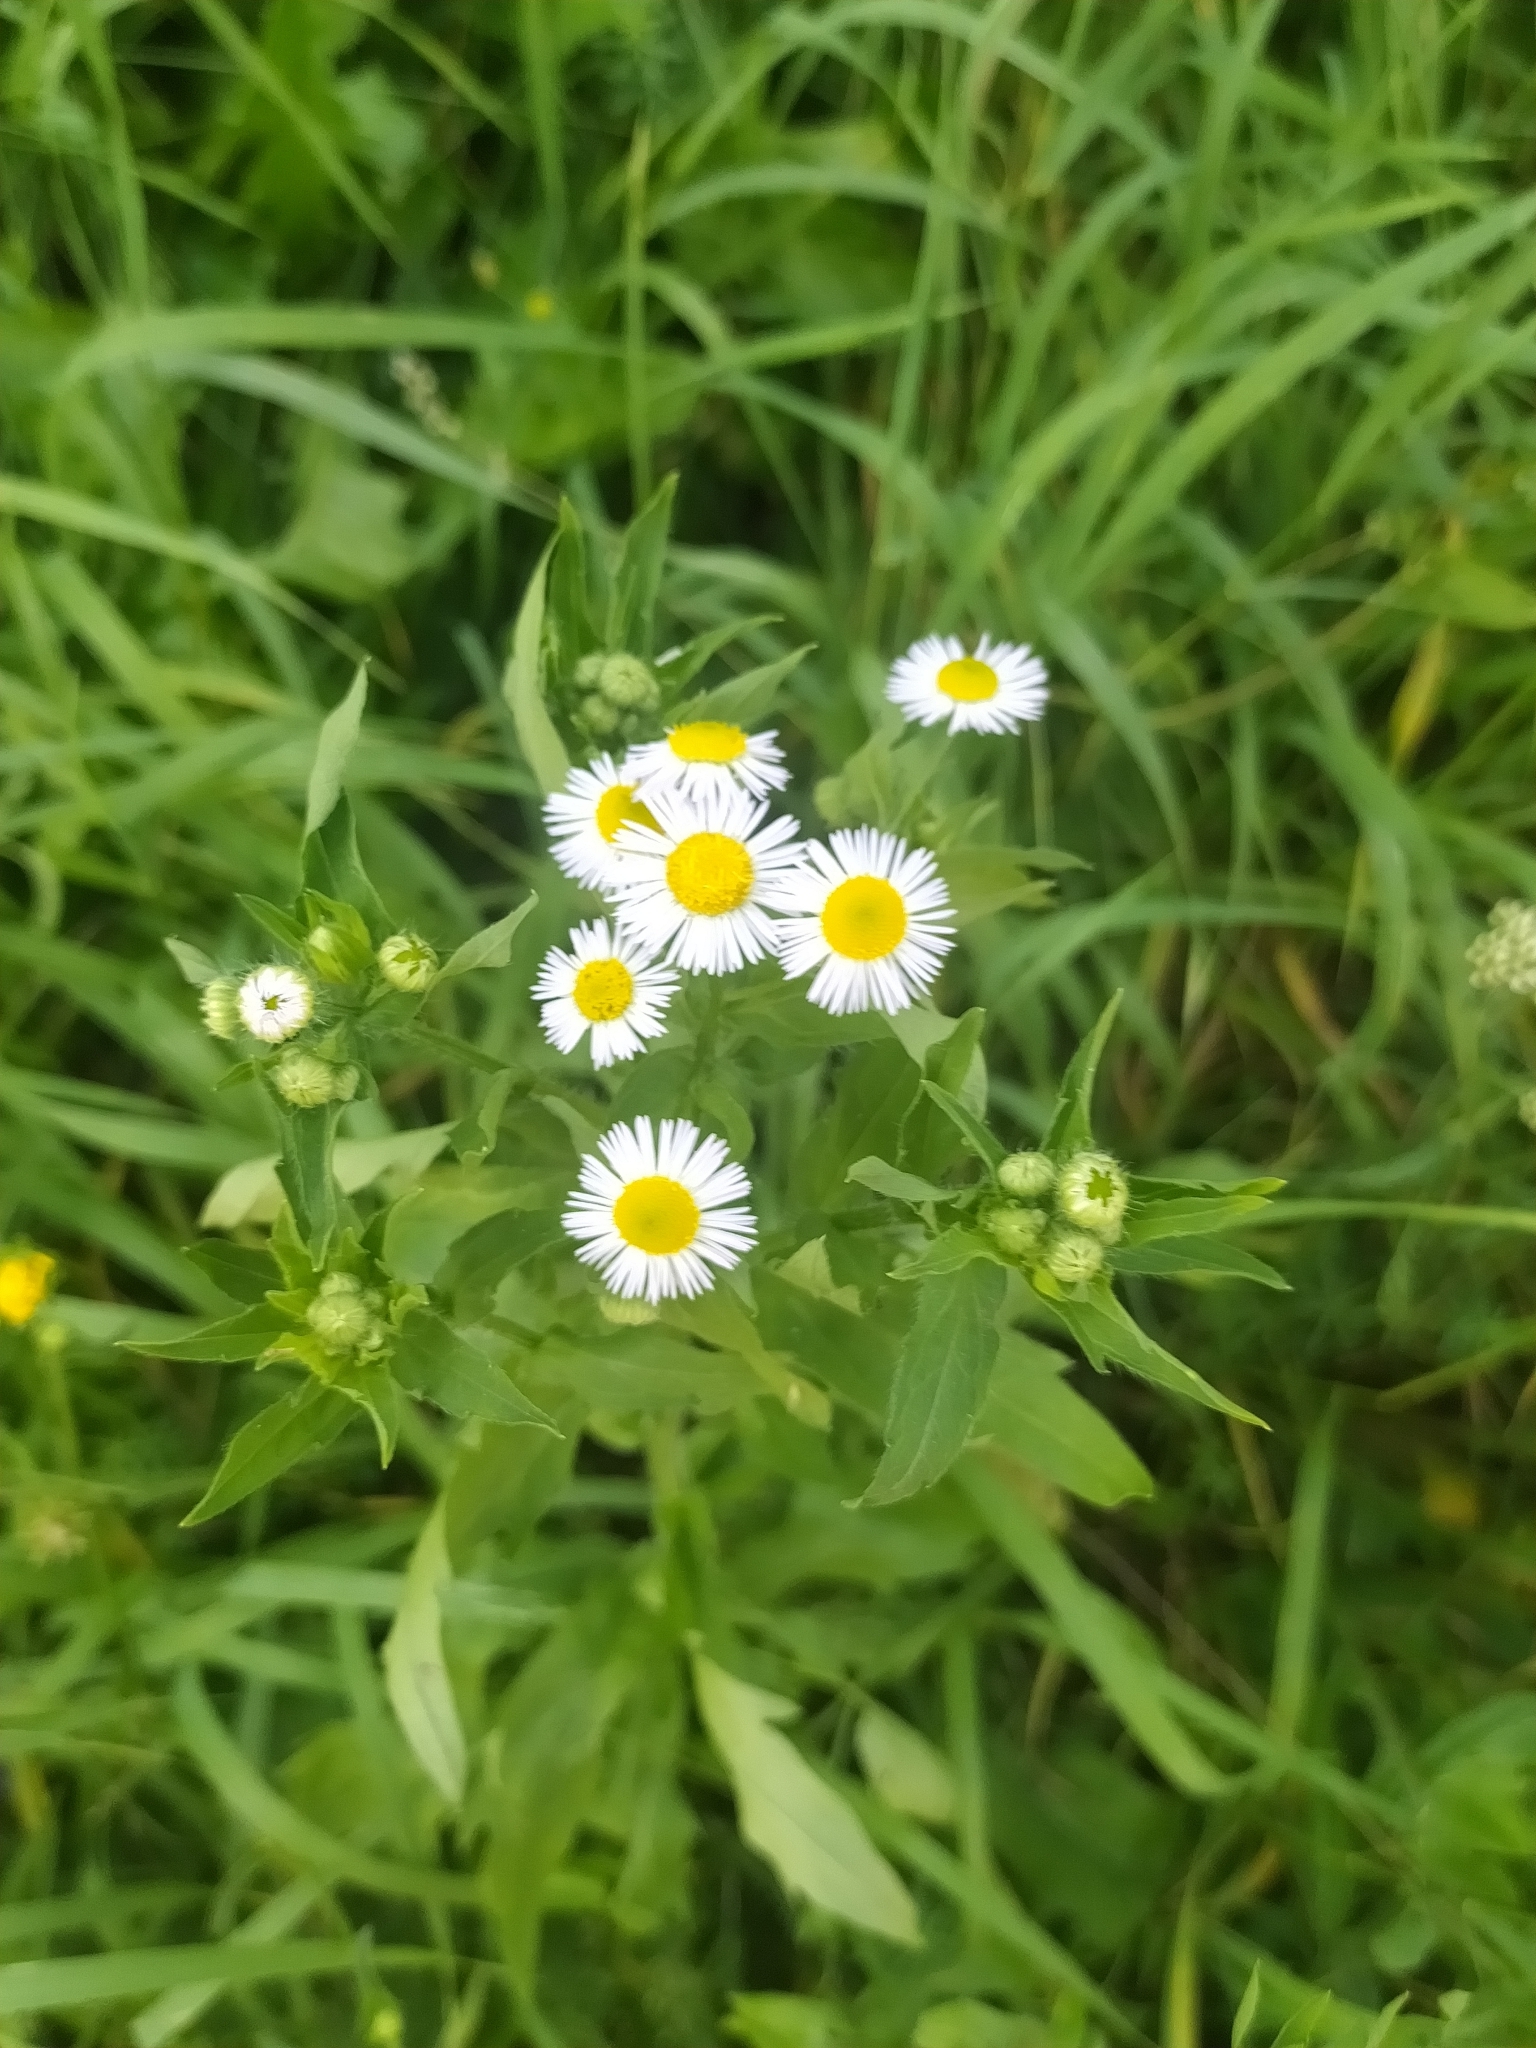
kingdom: Plantae
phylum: Tracheophyta
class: Magnoliopsida
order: Asterales
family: Asteraceae
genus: Erigeron
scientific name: Erigeron annuus
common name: Tall fleabane
